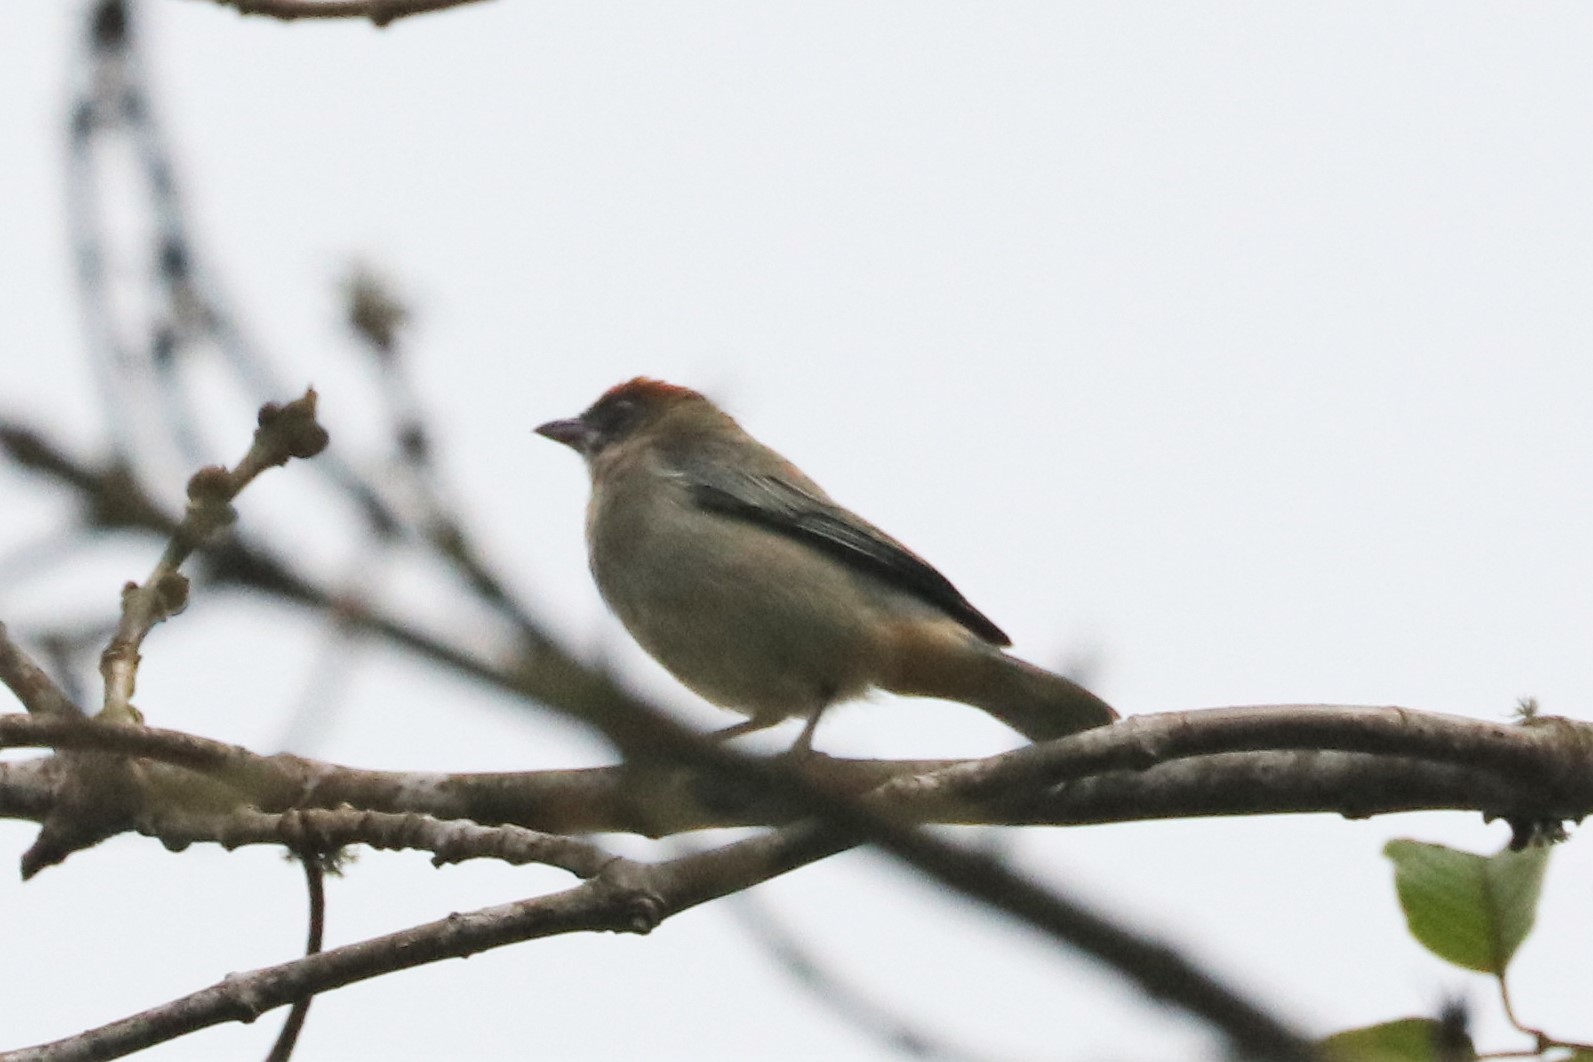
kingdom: Animalia
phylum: Chordata
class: Aves
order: Passeriformes
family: Thraupidae
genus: Stilpnia
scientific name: Stilpnia vitriolina
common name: Scrub tanager
